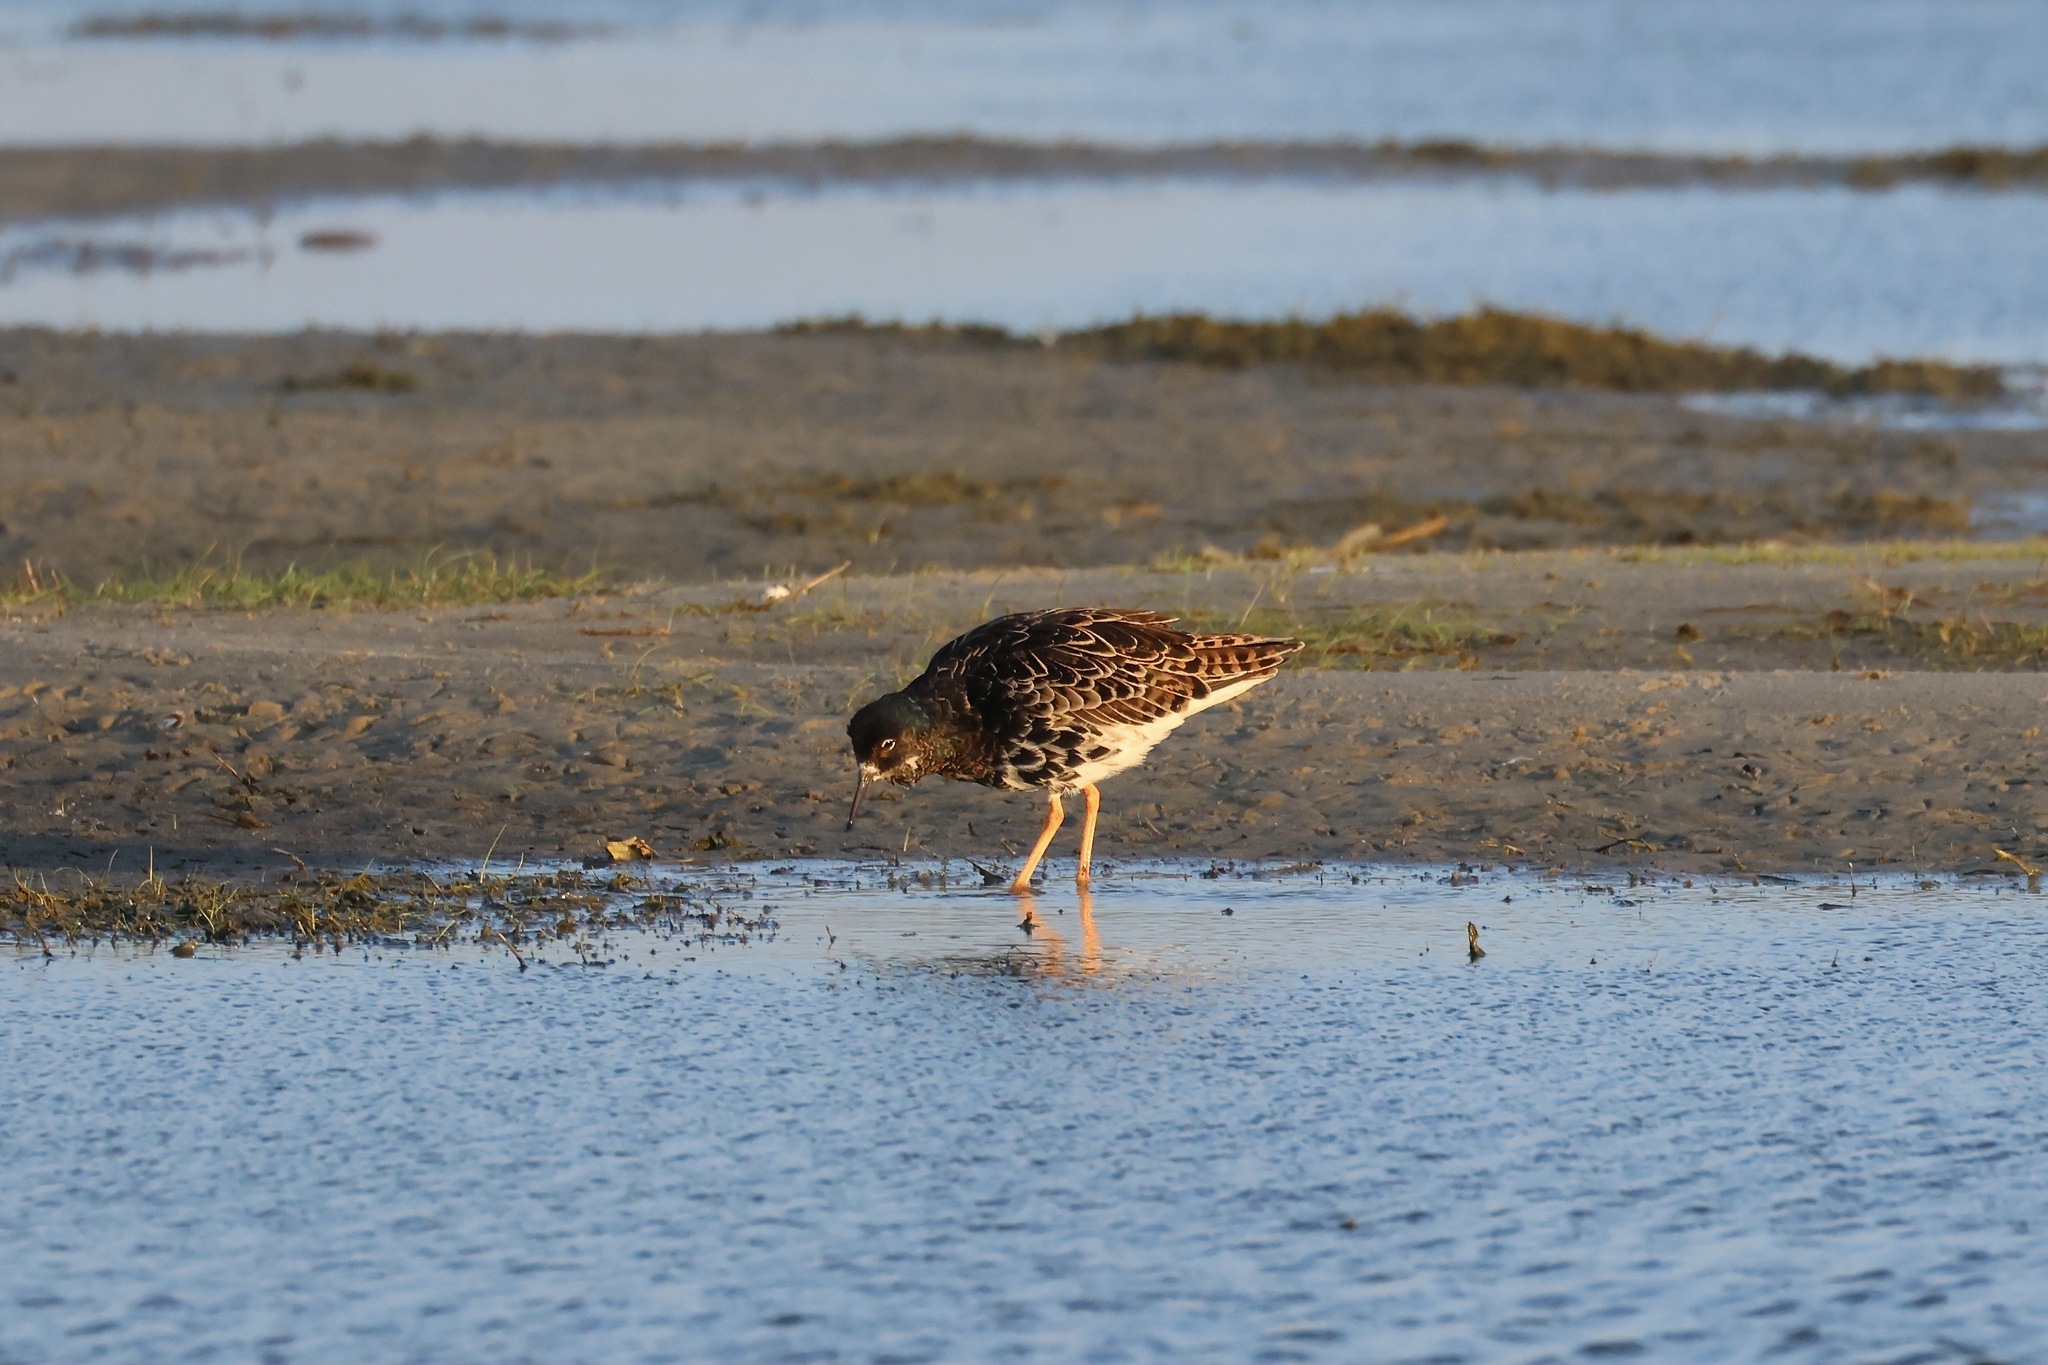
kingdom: Animalia
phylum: Chordata
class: Aves
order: Charadriiformes
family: Scolopacidae
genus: Calidris
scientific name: Calidris pugnax
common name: Ruff
